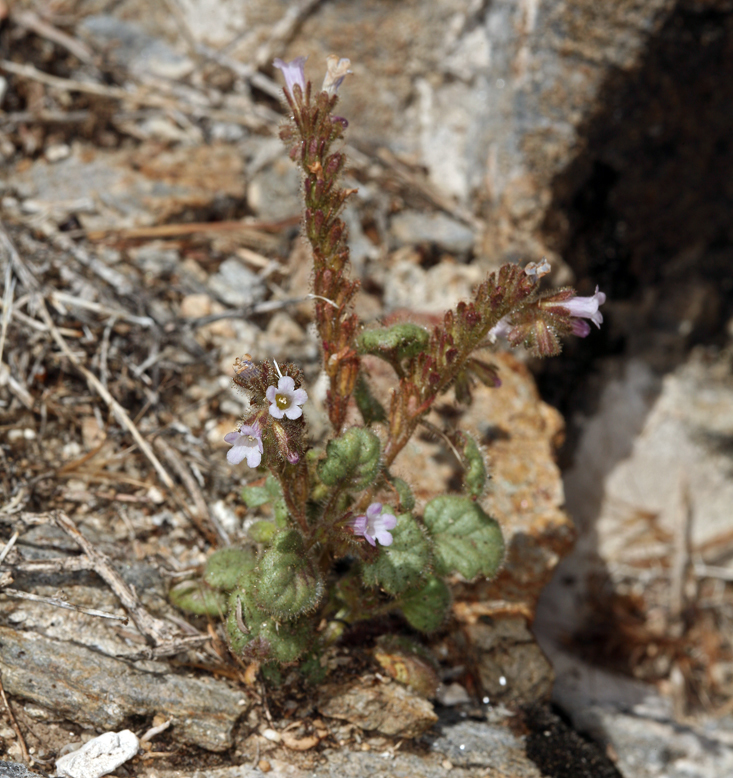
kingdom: Plantae
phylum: Tracheophyta
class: Magnoliopsida
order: Boraginales
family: Hydrophyllaceae
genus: Phacelia
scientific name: Phacelia mustelina
